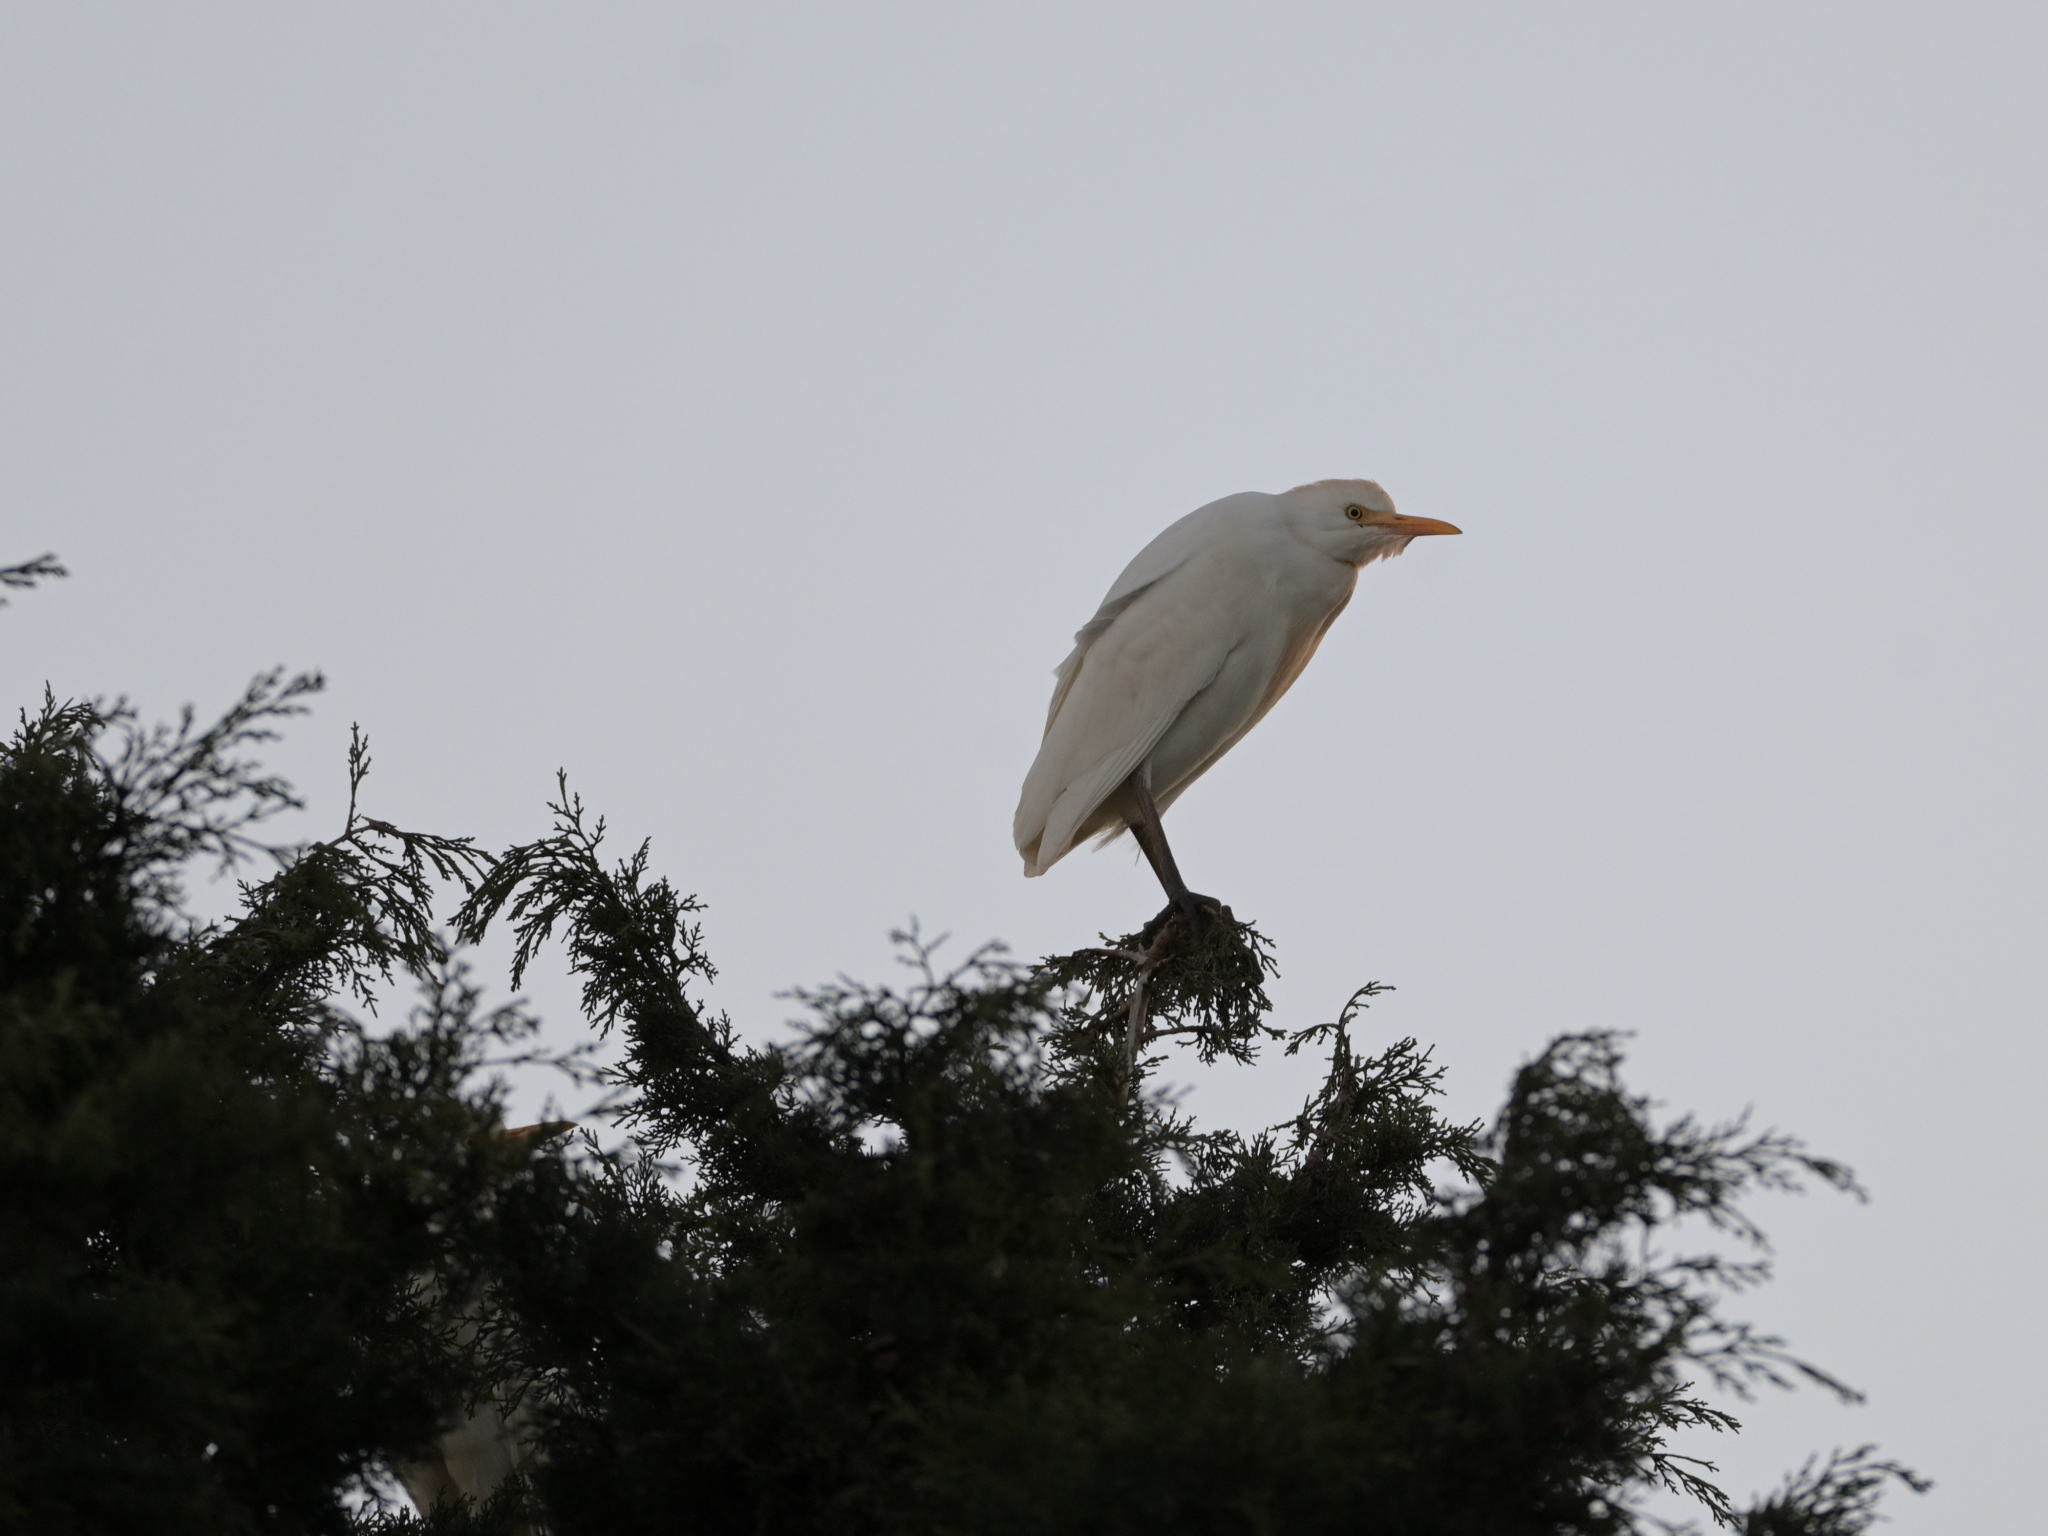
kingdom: Animalia
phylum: Chordata
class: Aves
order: Pelecaniformes
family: Ardeidae
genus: Bubulcus
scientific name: Bubulcus ibis
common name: Cattle egret
